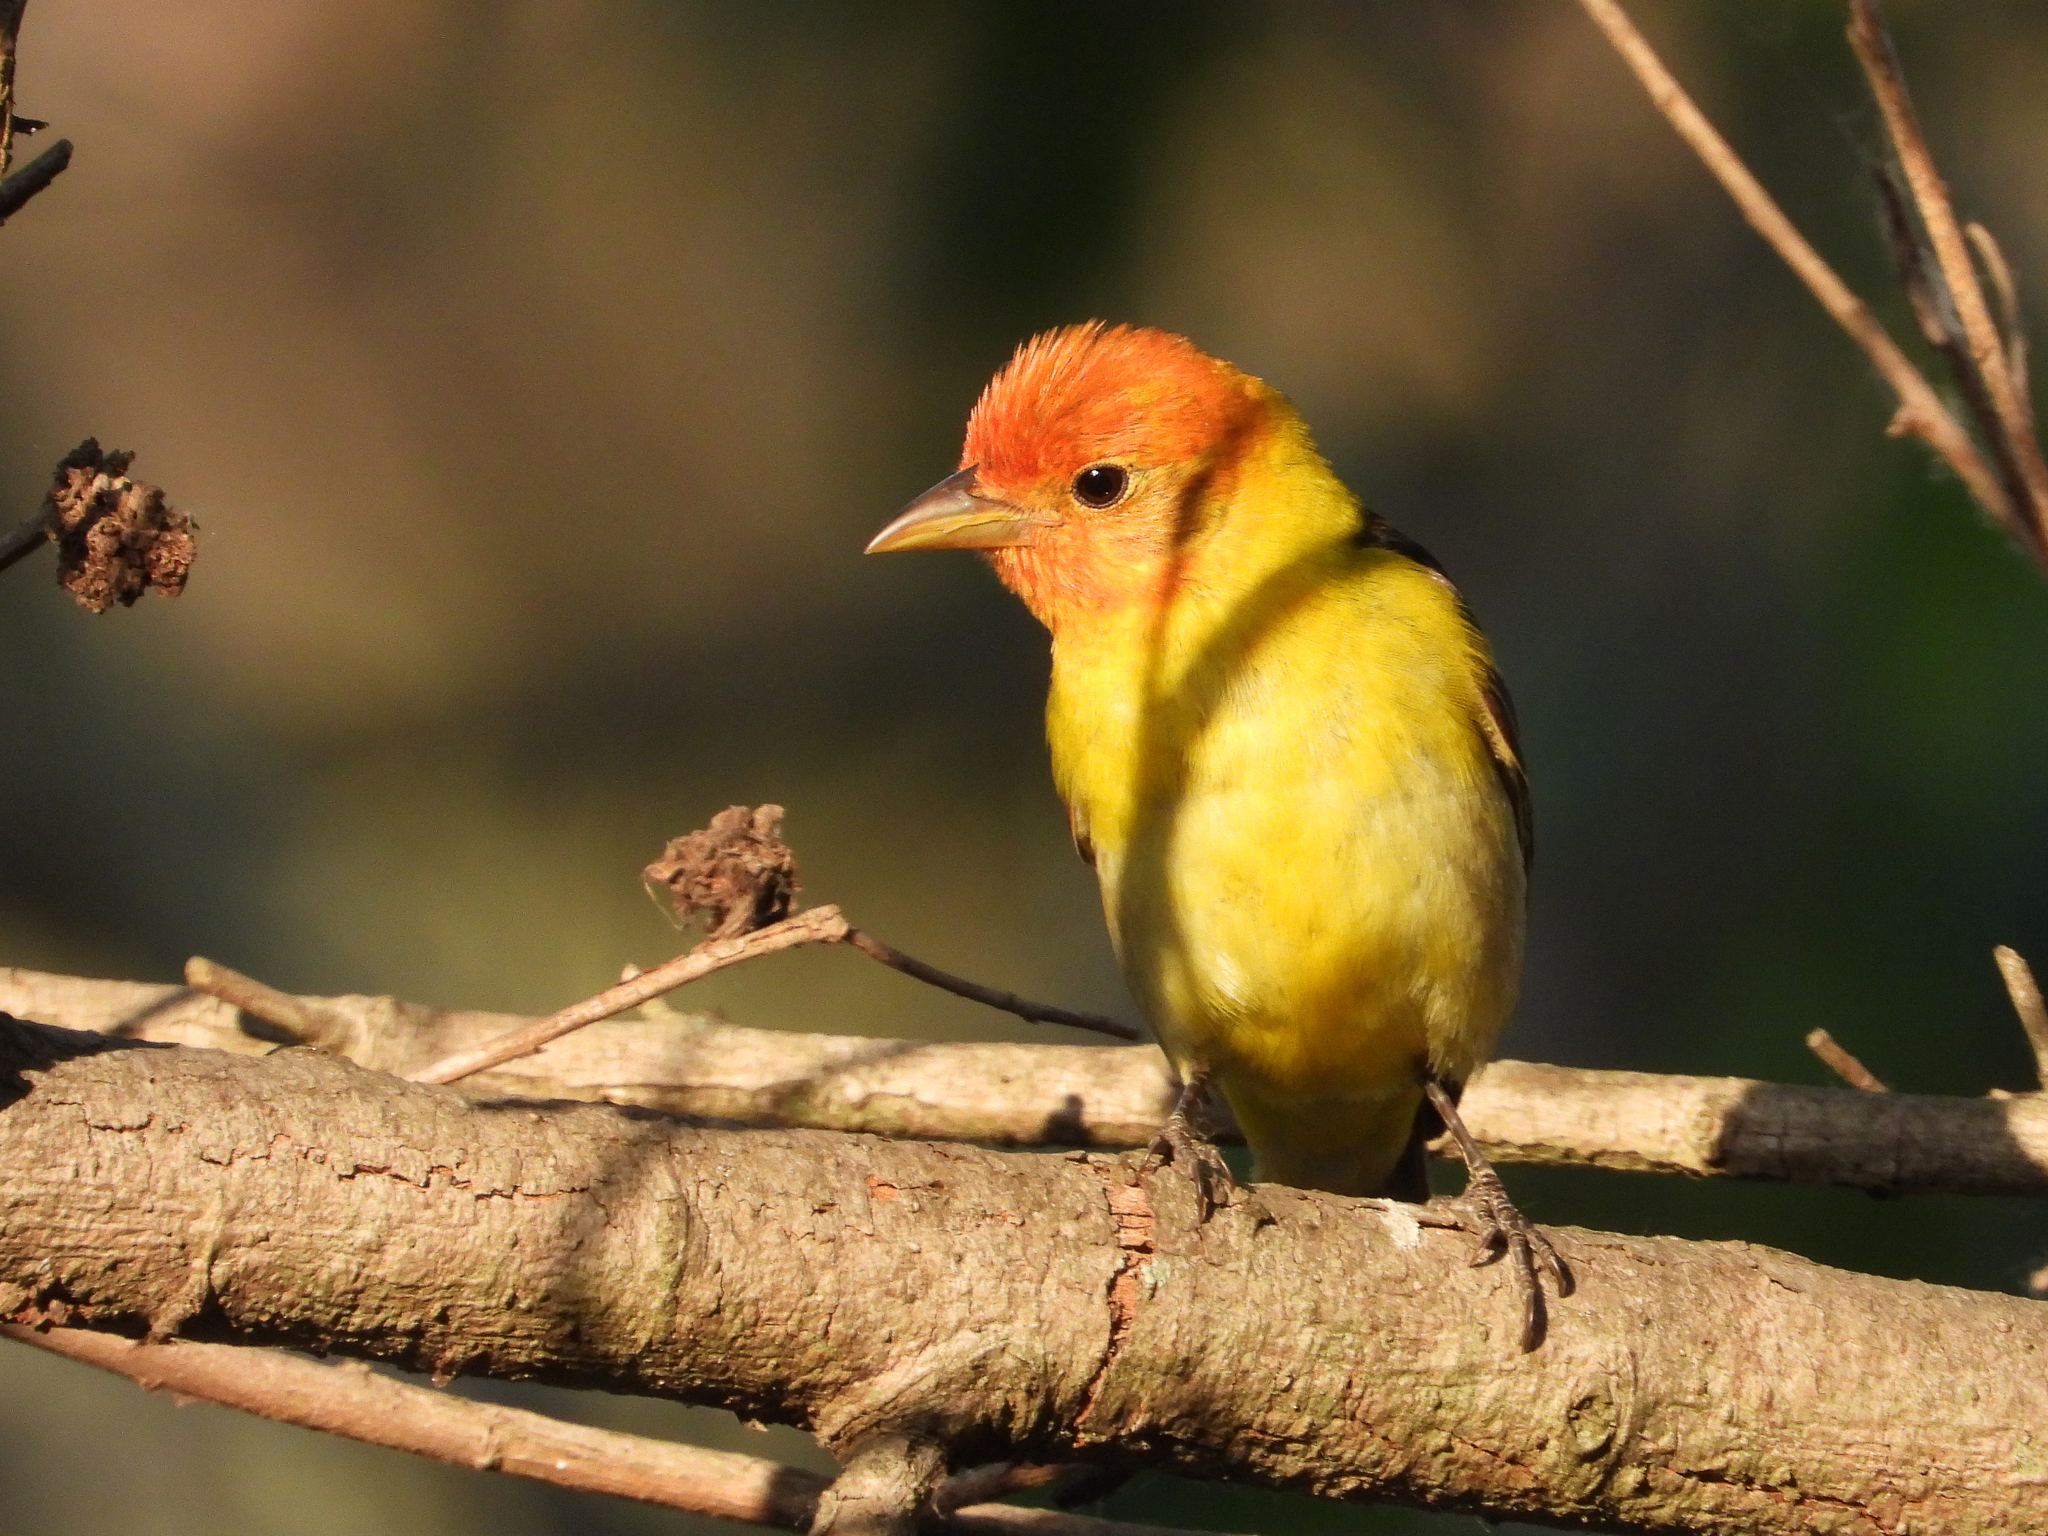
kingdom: Animalia
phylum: Chordata
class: Aves
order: Passeriformes
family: Cardinalidae
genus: Piranga
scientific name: Piranga ludoviciana
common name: Western tanager
